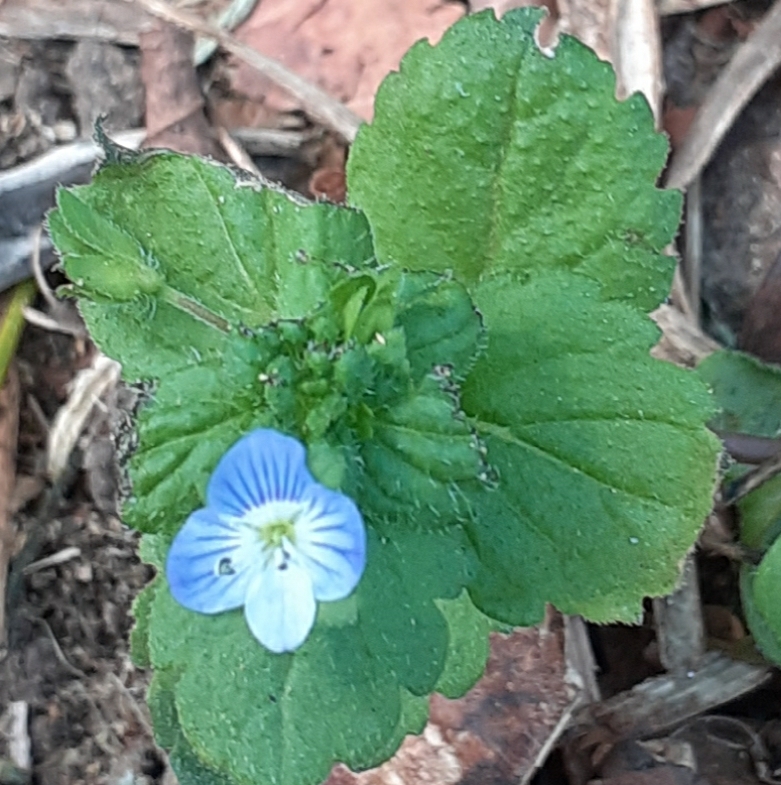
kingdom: Plantae
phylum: Tracheophyta
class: Magnoliopsida
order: Lamiales
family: Plantaginaceae
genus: Veronica
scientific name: Veronica persica
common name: Common field-speedwell
